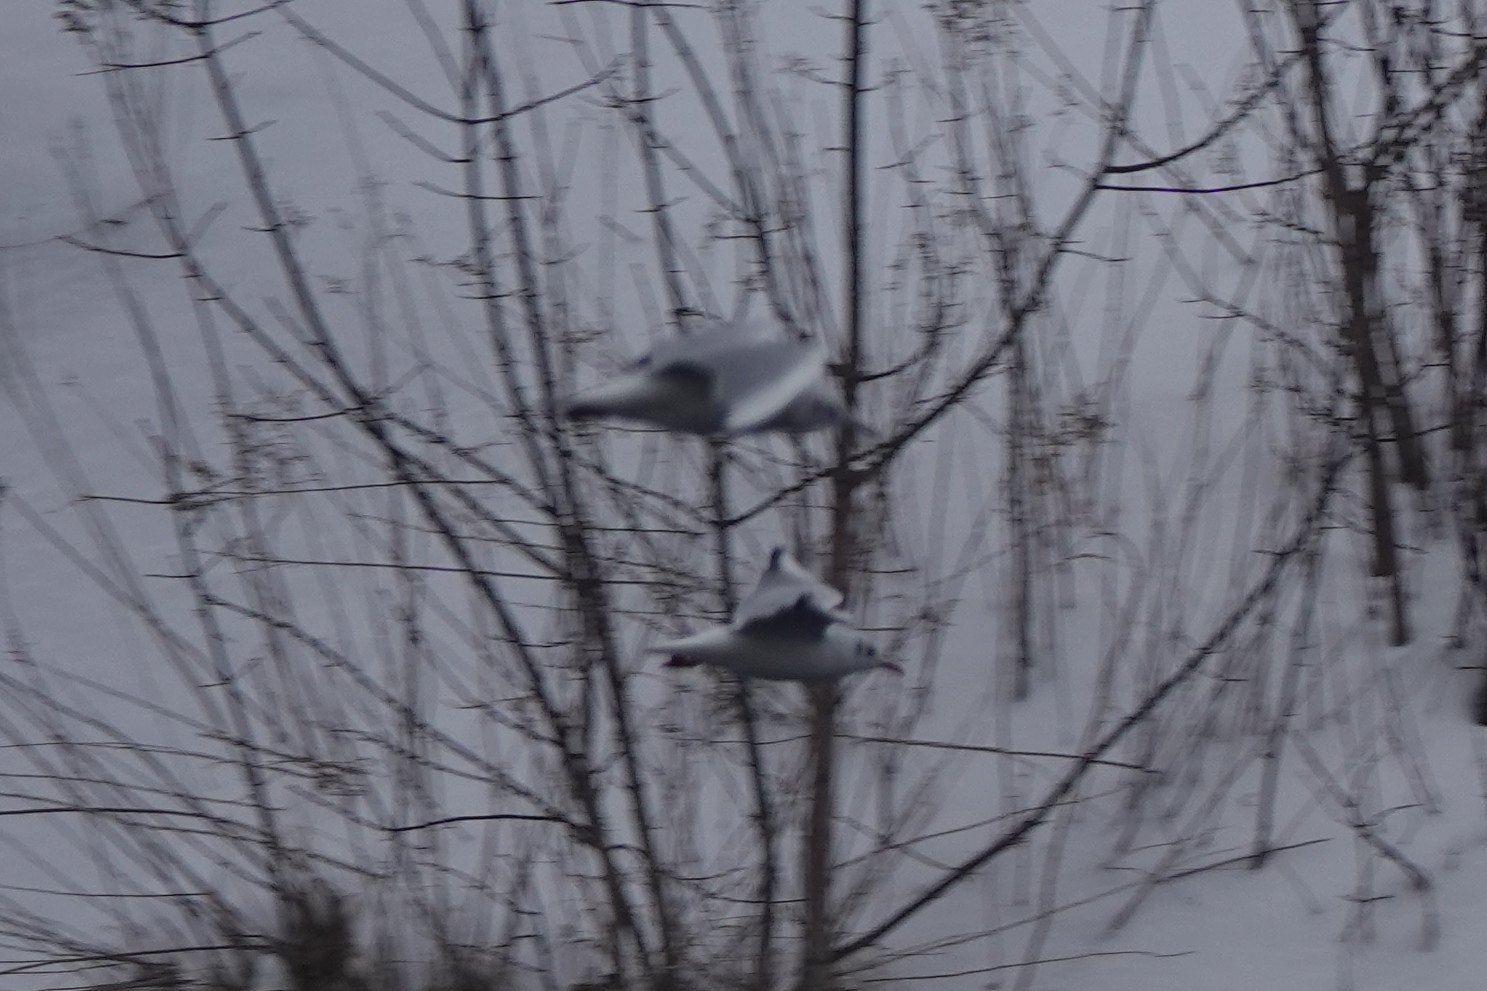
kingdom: Animalia
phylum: Chordata
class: Aves
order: Charadriiformes
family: Laridae
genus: Chroicocephalus
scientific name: Chroicocephalus ridibundus
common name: Black-headed gull
